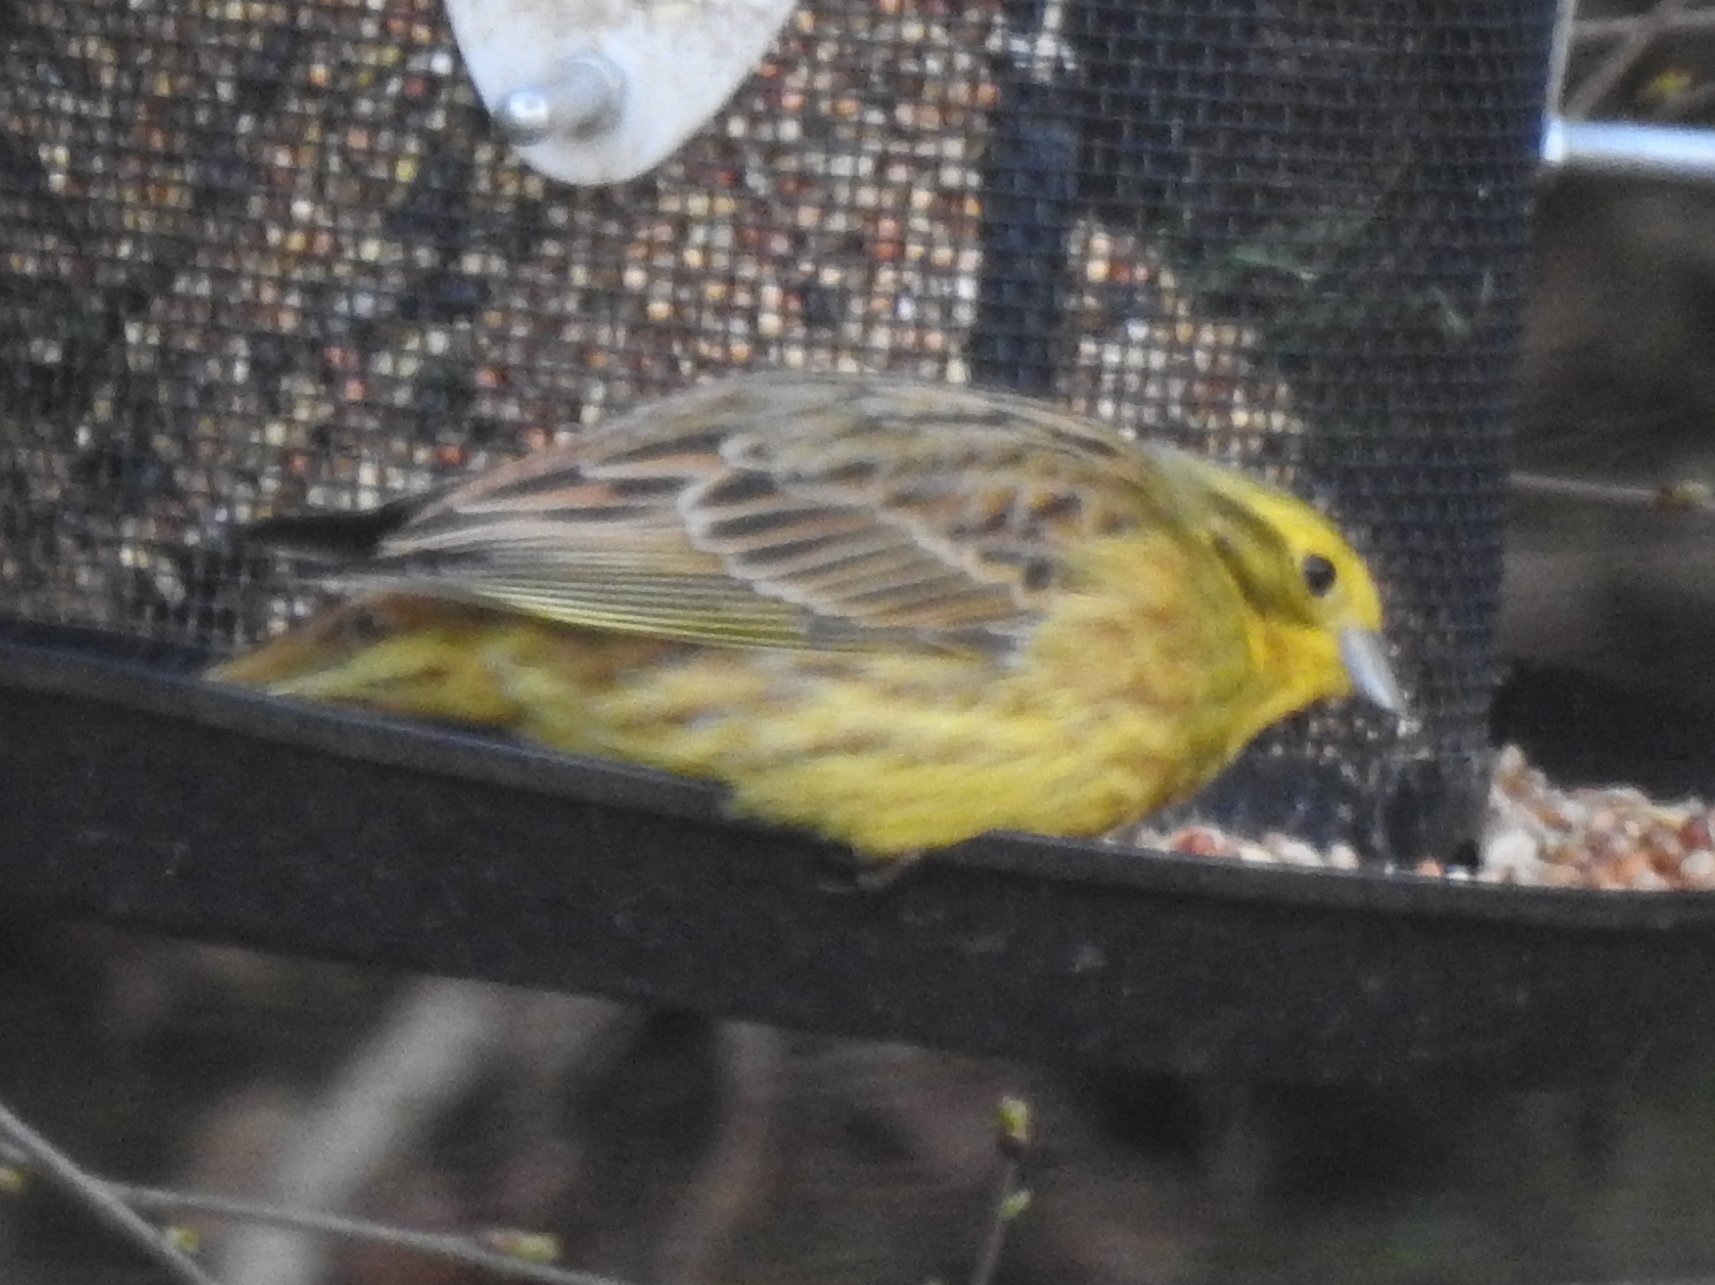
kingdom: Animalia
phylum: Chordata
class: Aves
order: Passeriformes
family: Emberizidae
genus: Emberiza
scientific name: Emberiza citrinella
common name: Yellowhammer
